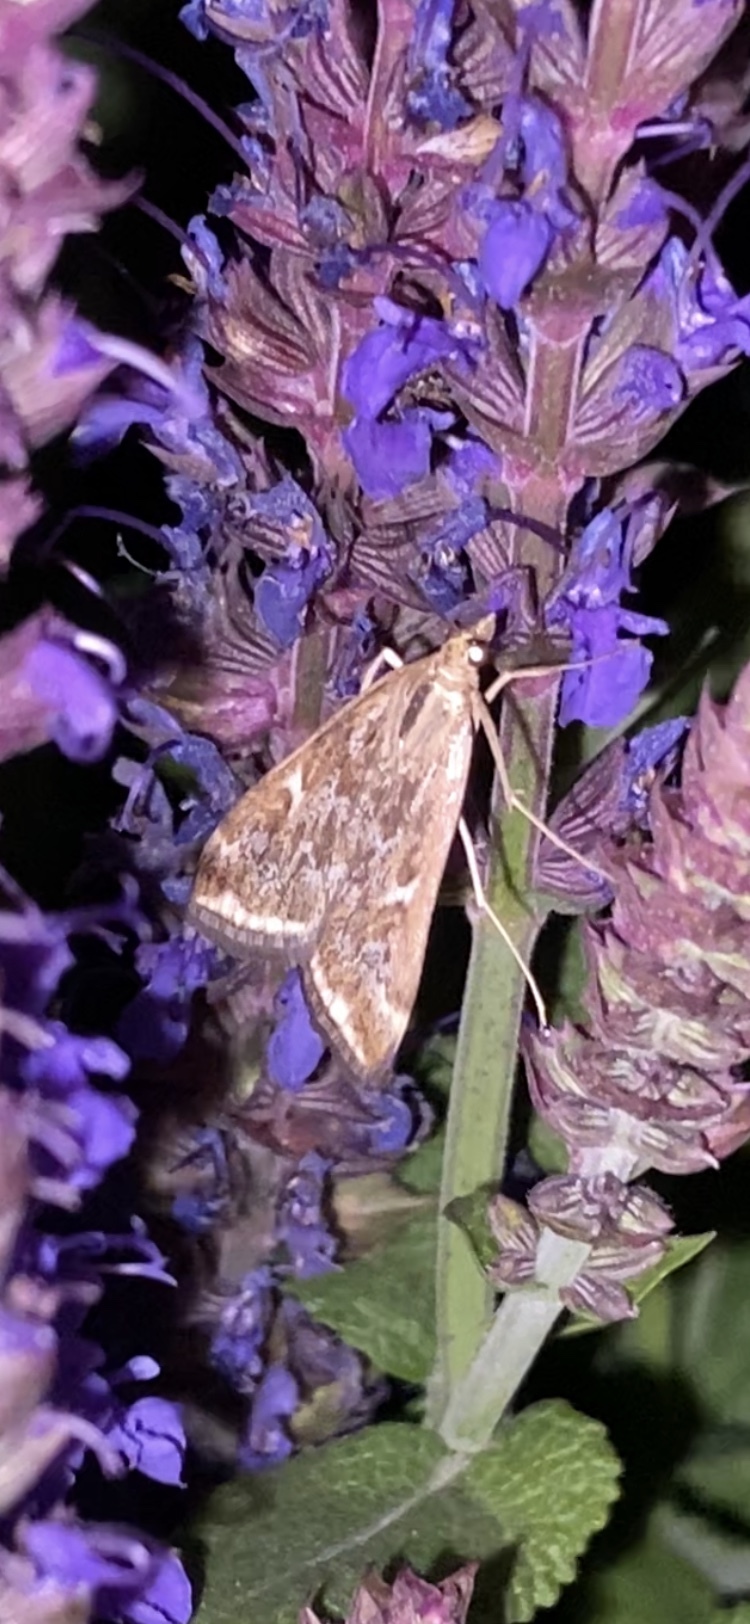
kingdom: Animalia
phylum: Arthropoda
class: Insecta
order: Lepidoptera
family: Crambidae
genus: Loxostege
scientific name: Loxostege
